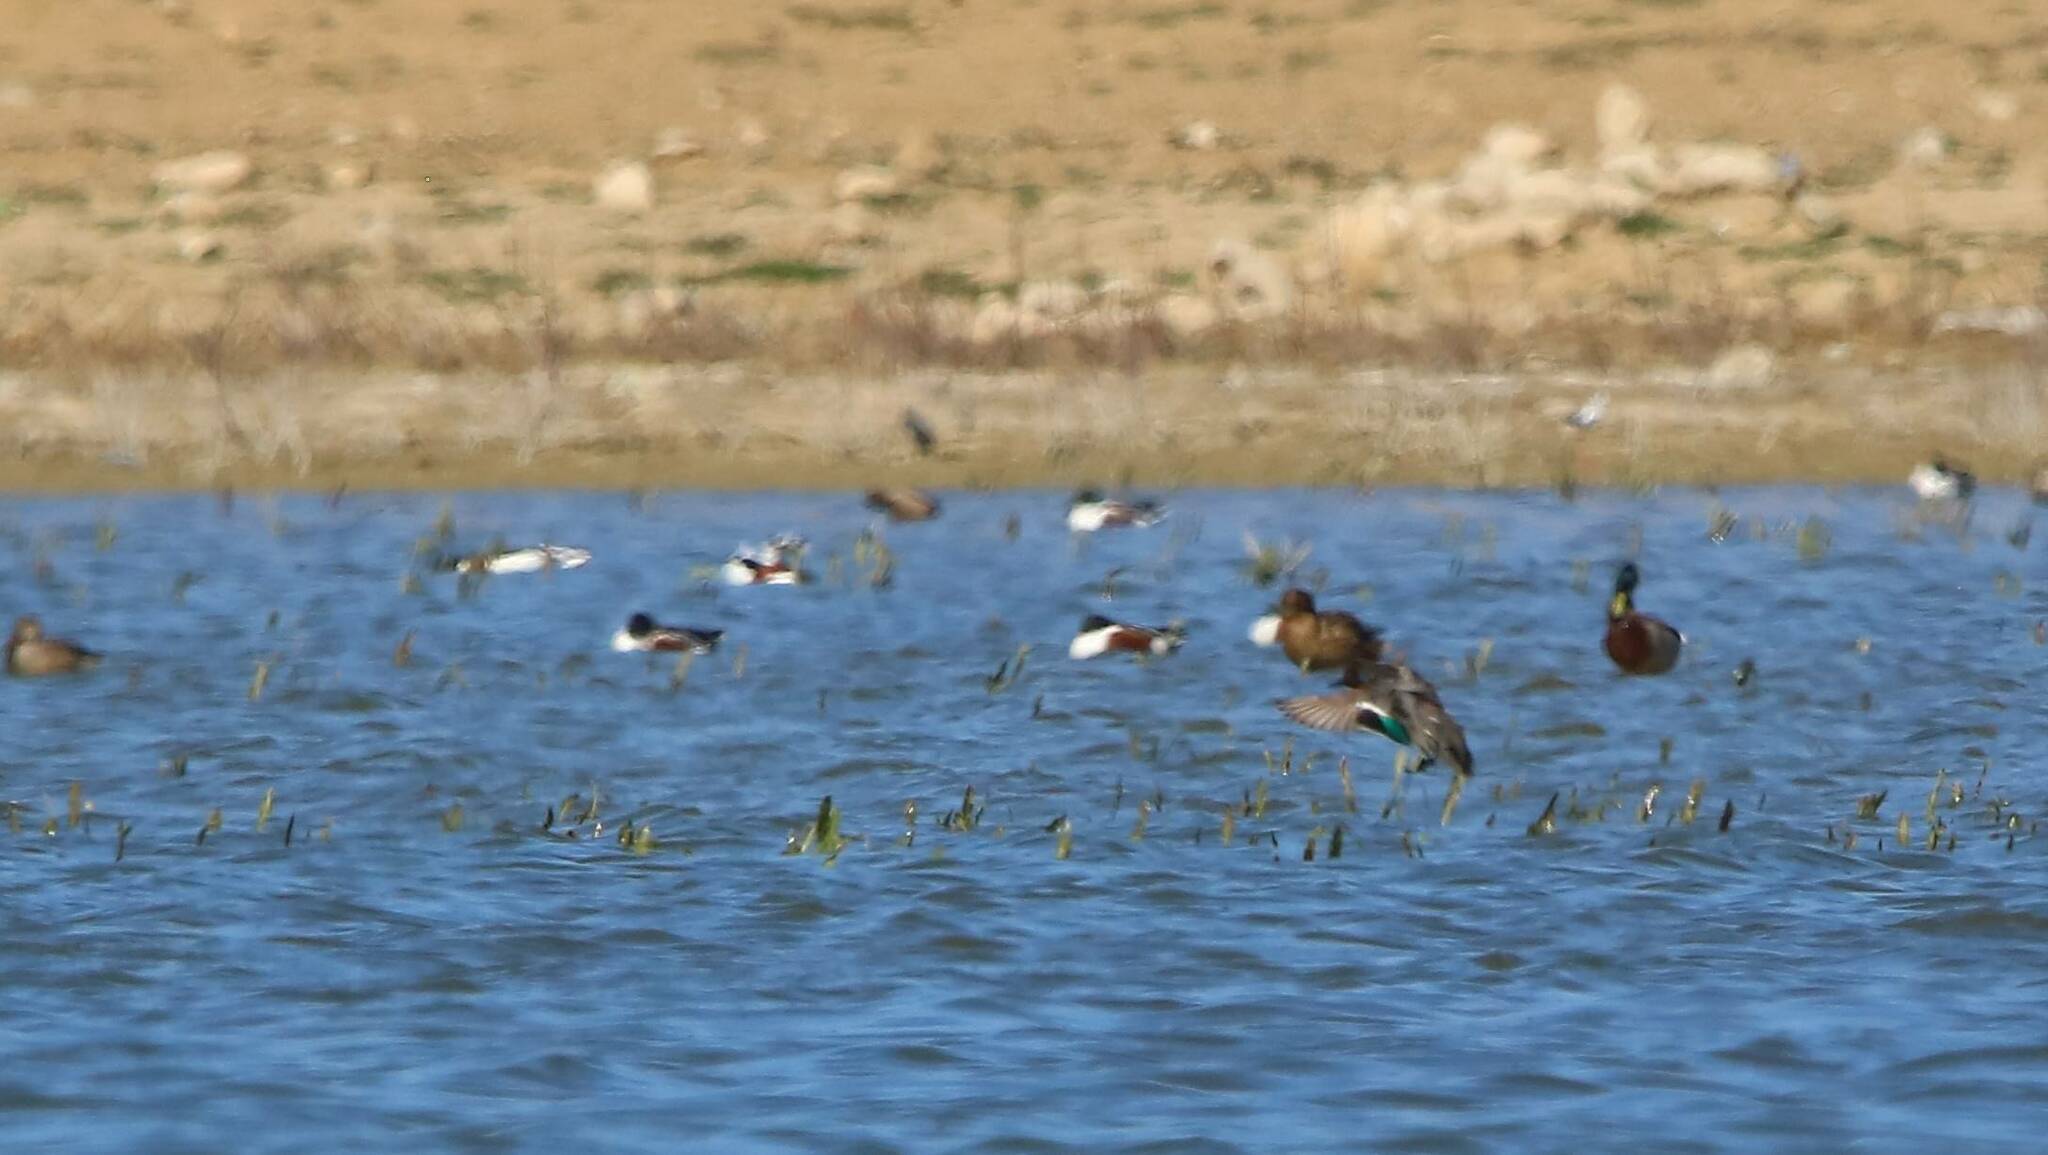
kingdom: Animalia
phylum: Chordata
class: Aves
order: Anseriformes
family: Anatidae
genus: Spatula
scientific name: Spatula clypeata
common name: Northern shoveler
